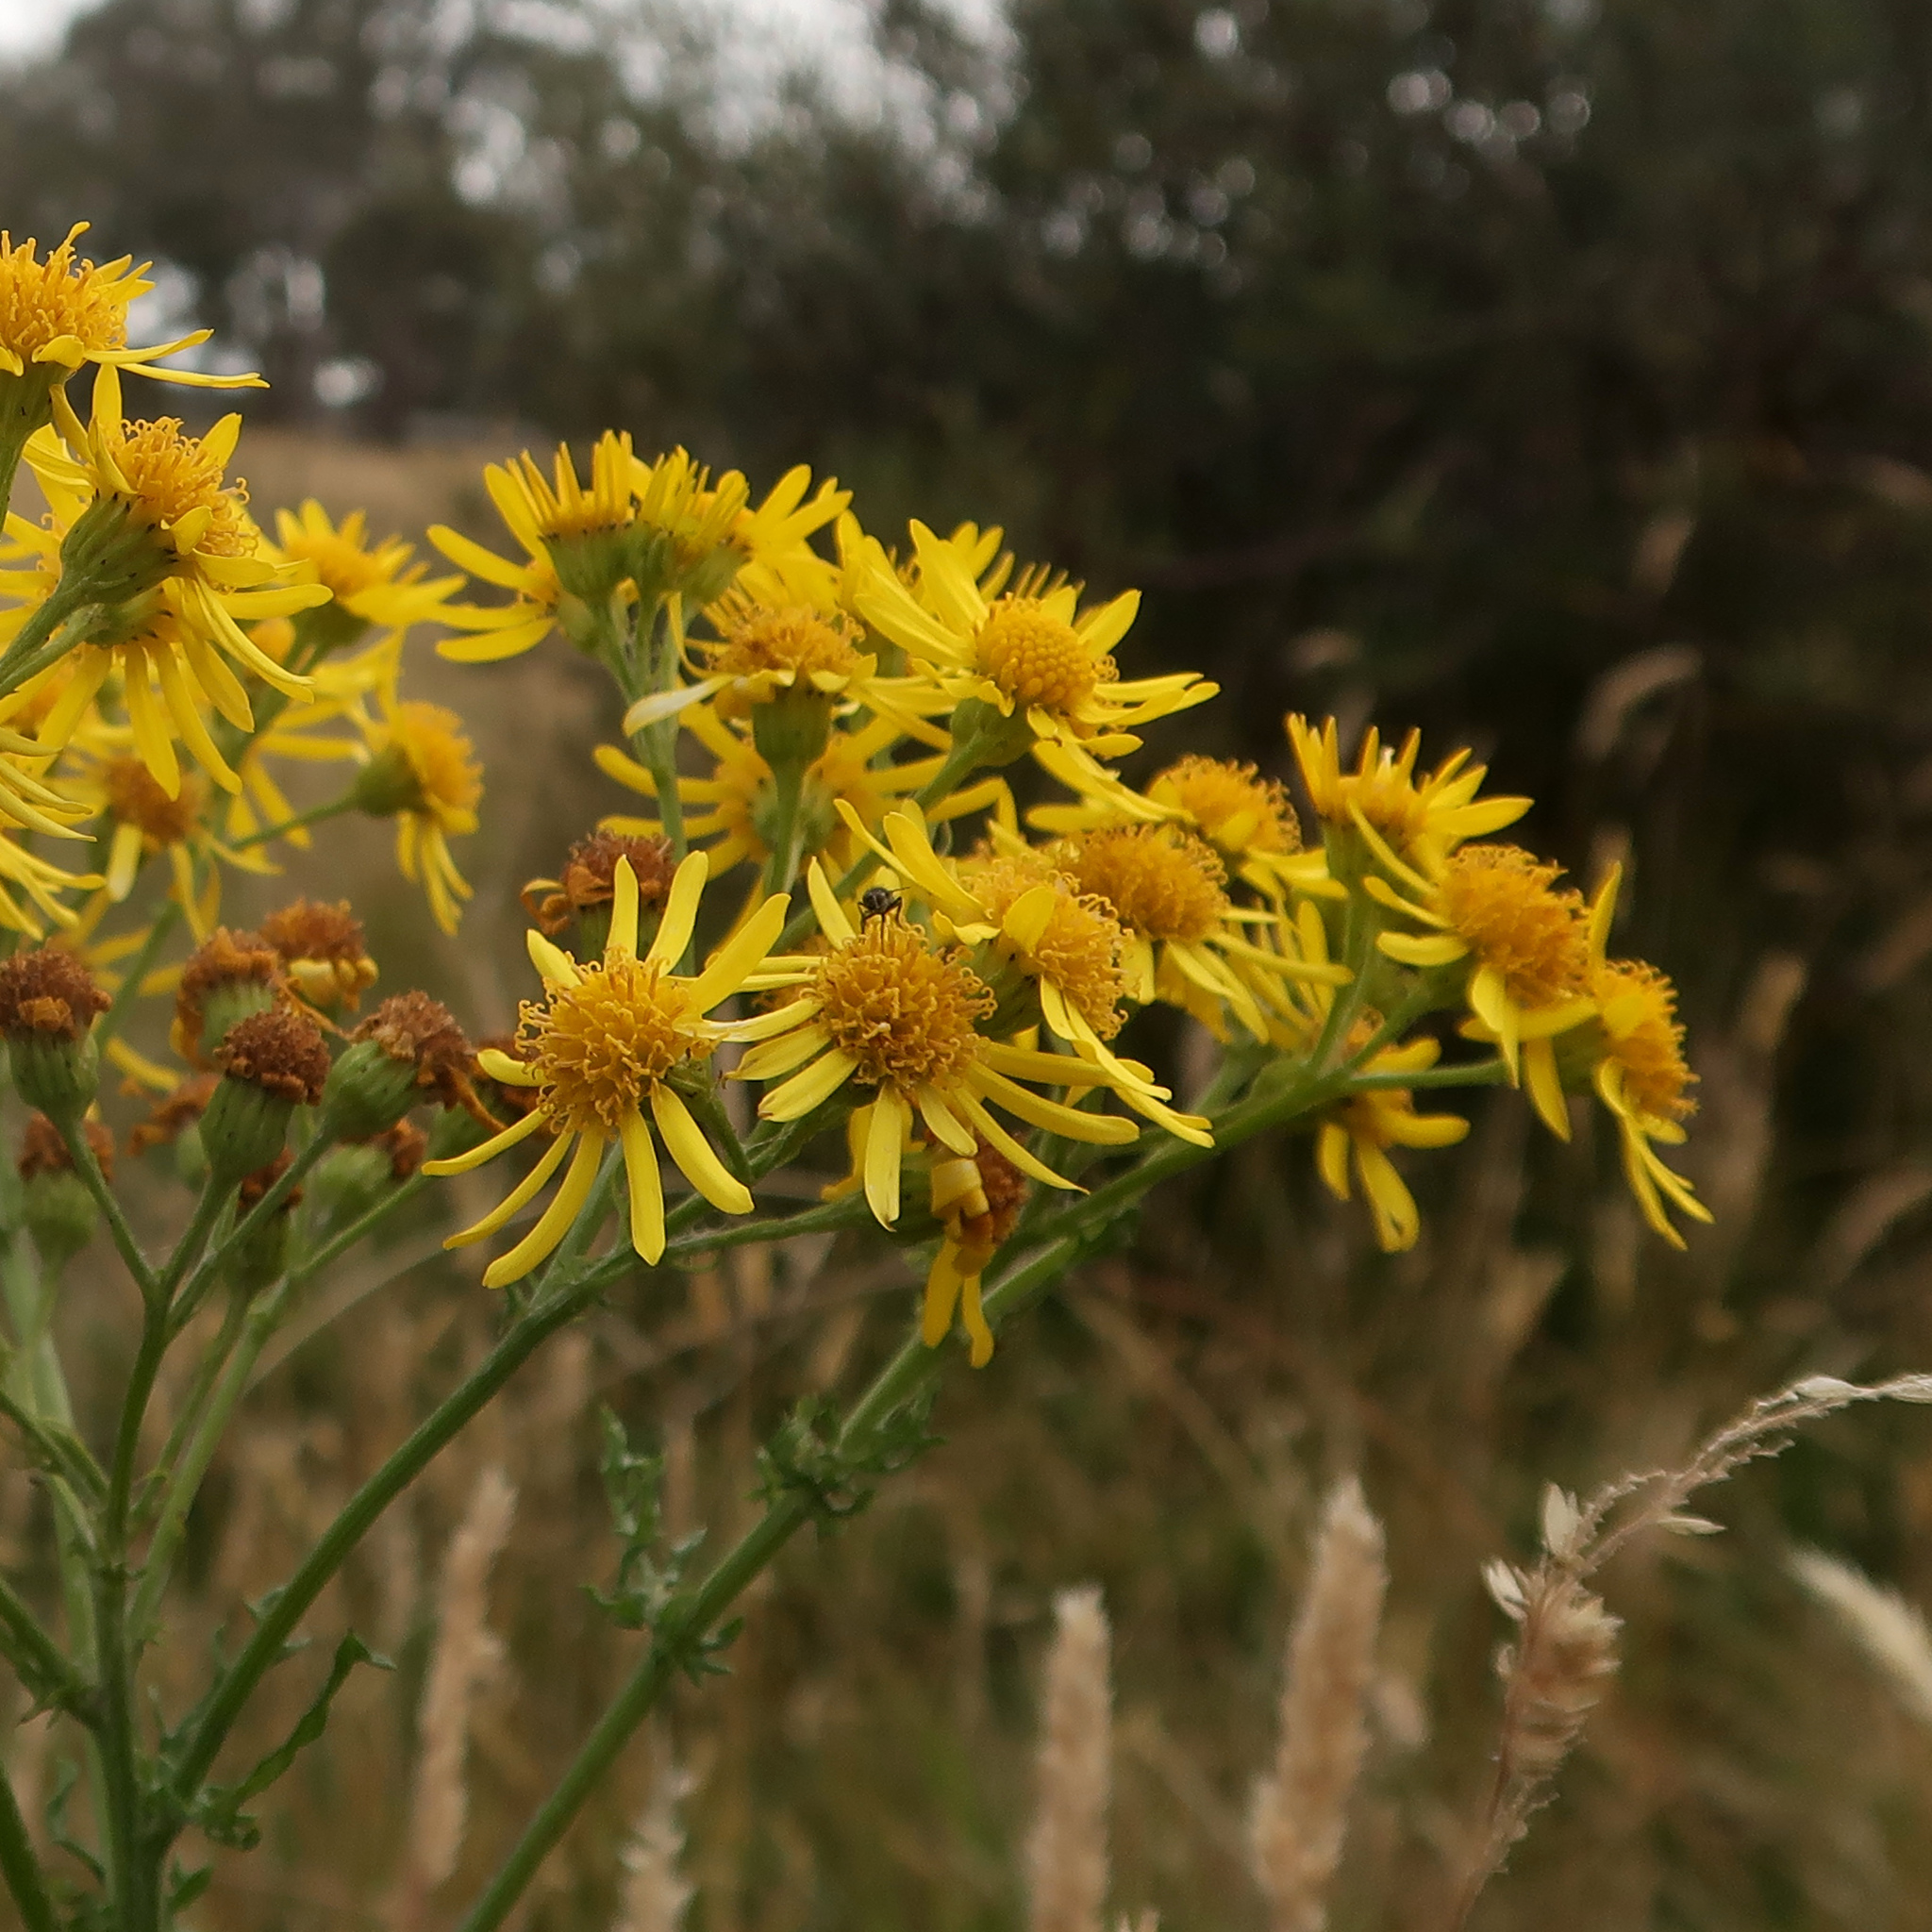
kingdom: Plantae
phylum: Tracheophyta
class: Magnoliopsida
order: Asterales
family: Asteraceae
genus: Jacobaea
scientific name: Jacobaea vulgaris
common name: Stinking willie
